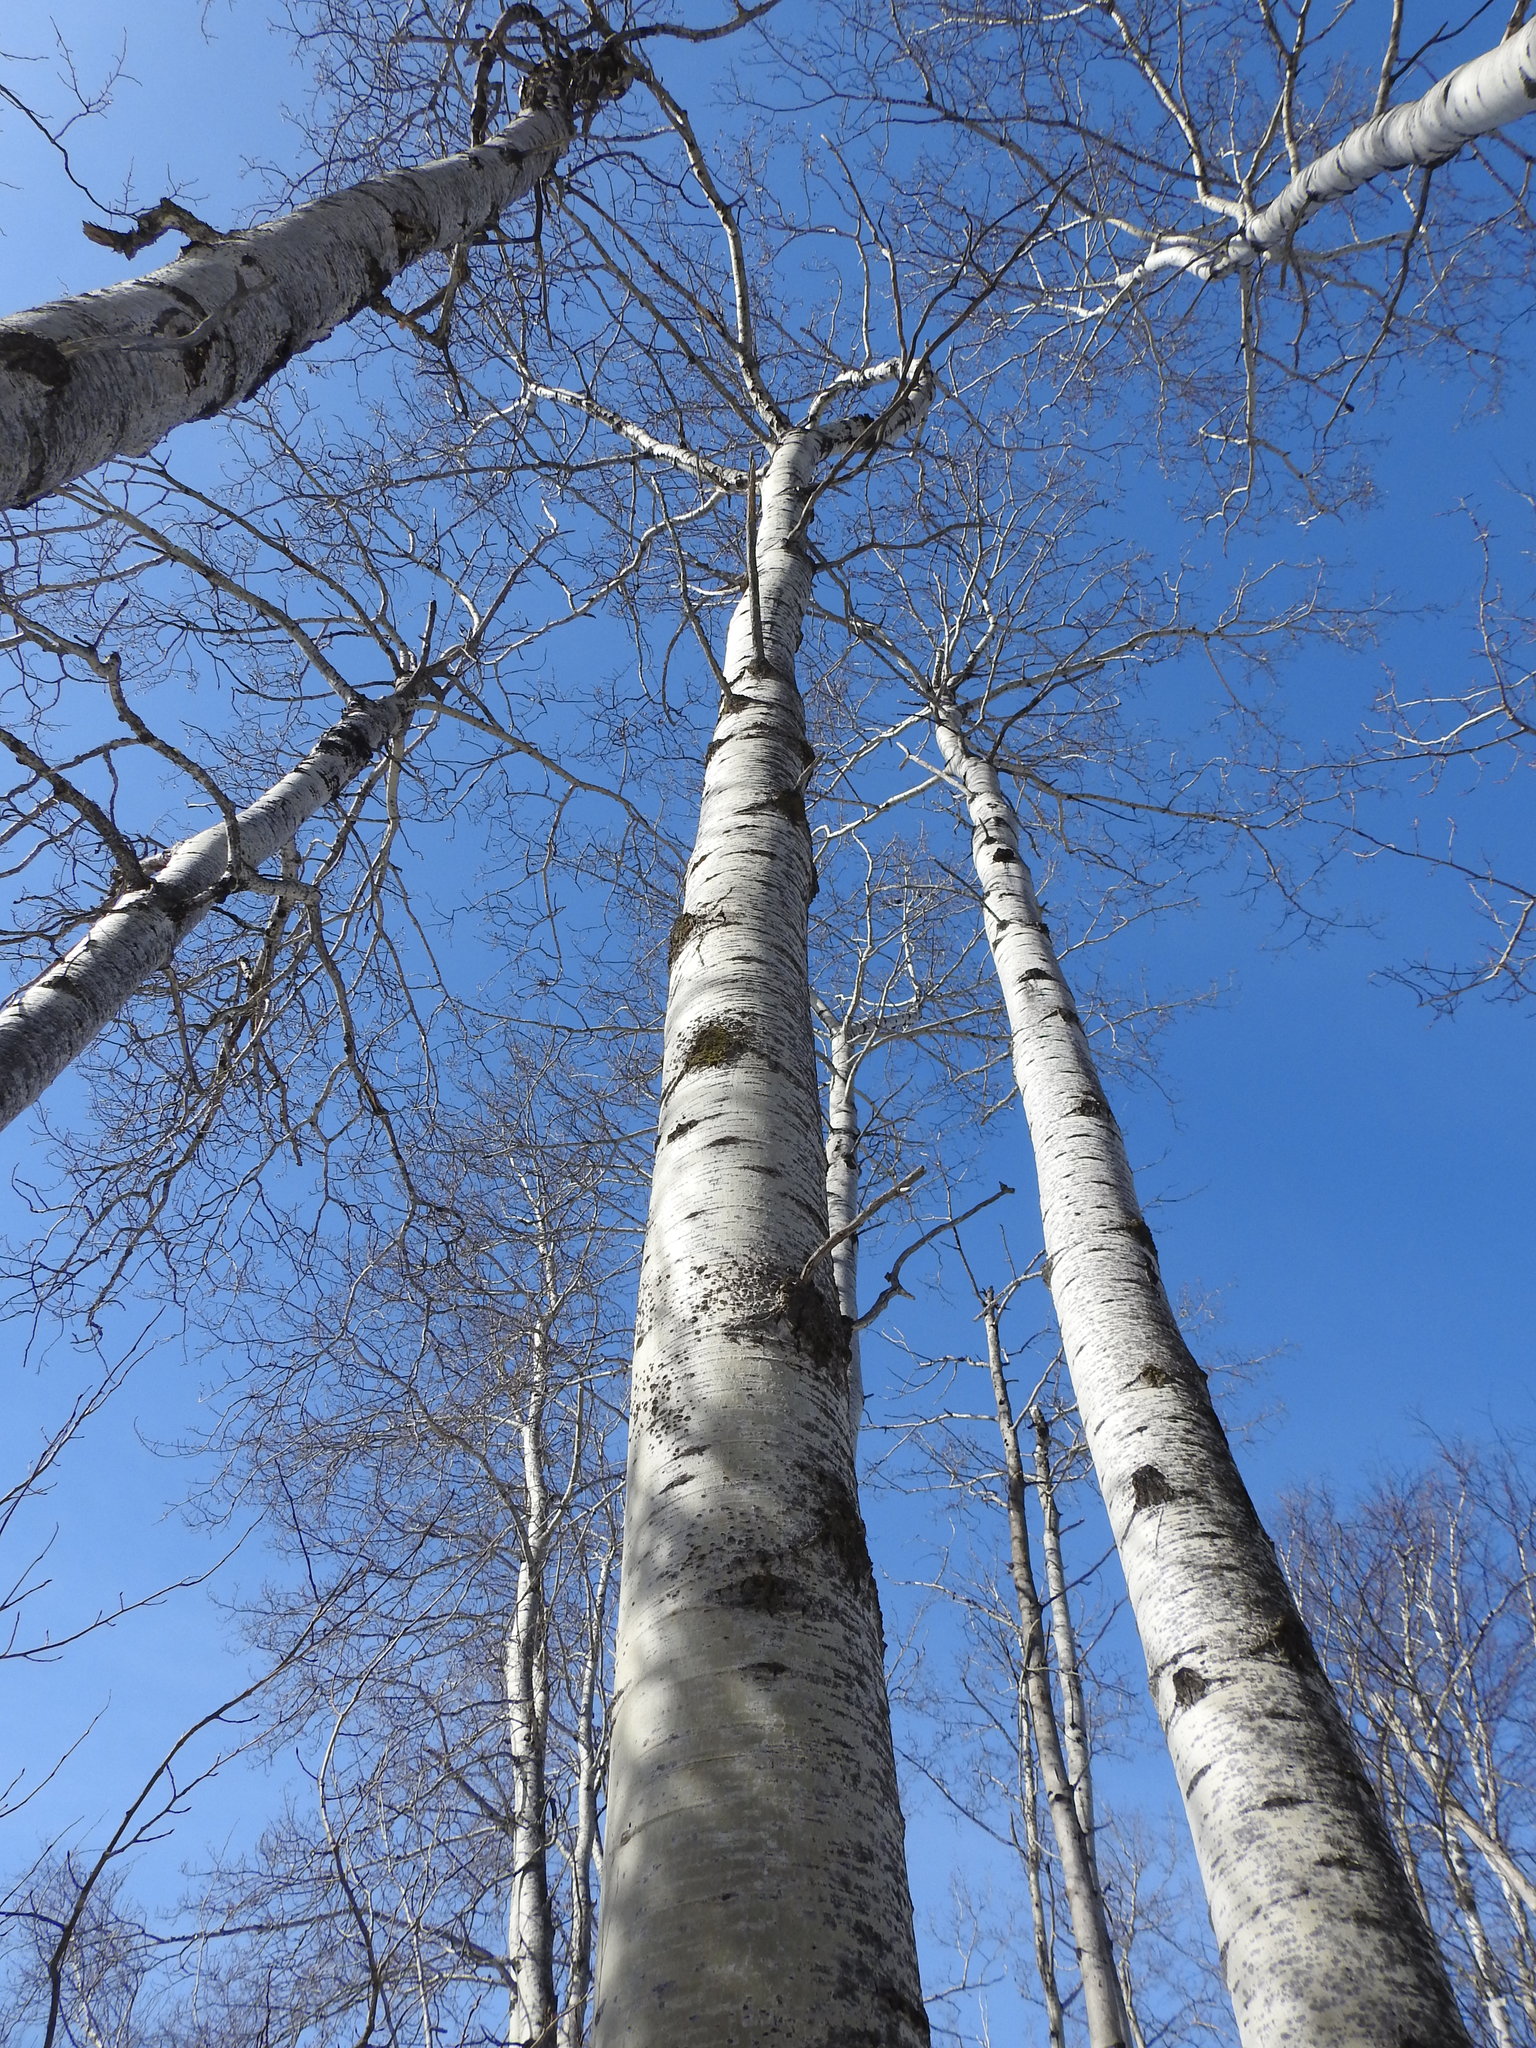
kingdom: Plantae
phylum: Tracheophyta
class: Magnoliopsida
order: Malpighiales
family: Salicaceae
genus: Populus
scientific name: Populus tremuloides
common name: Quaking aspen
